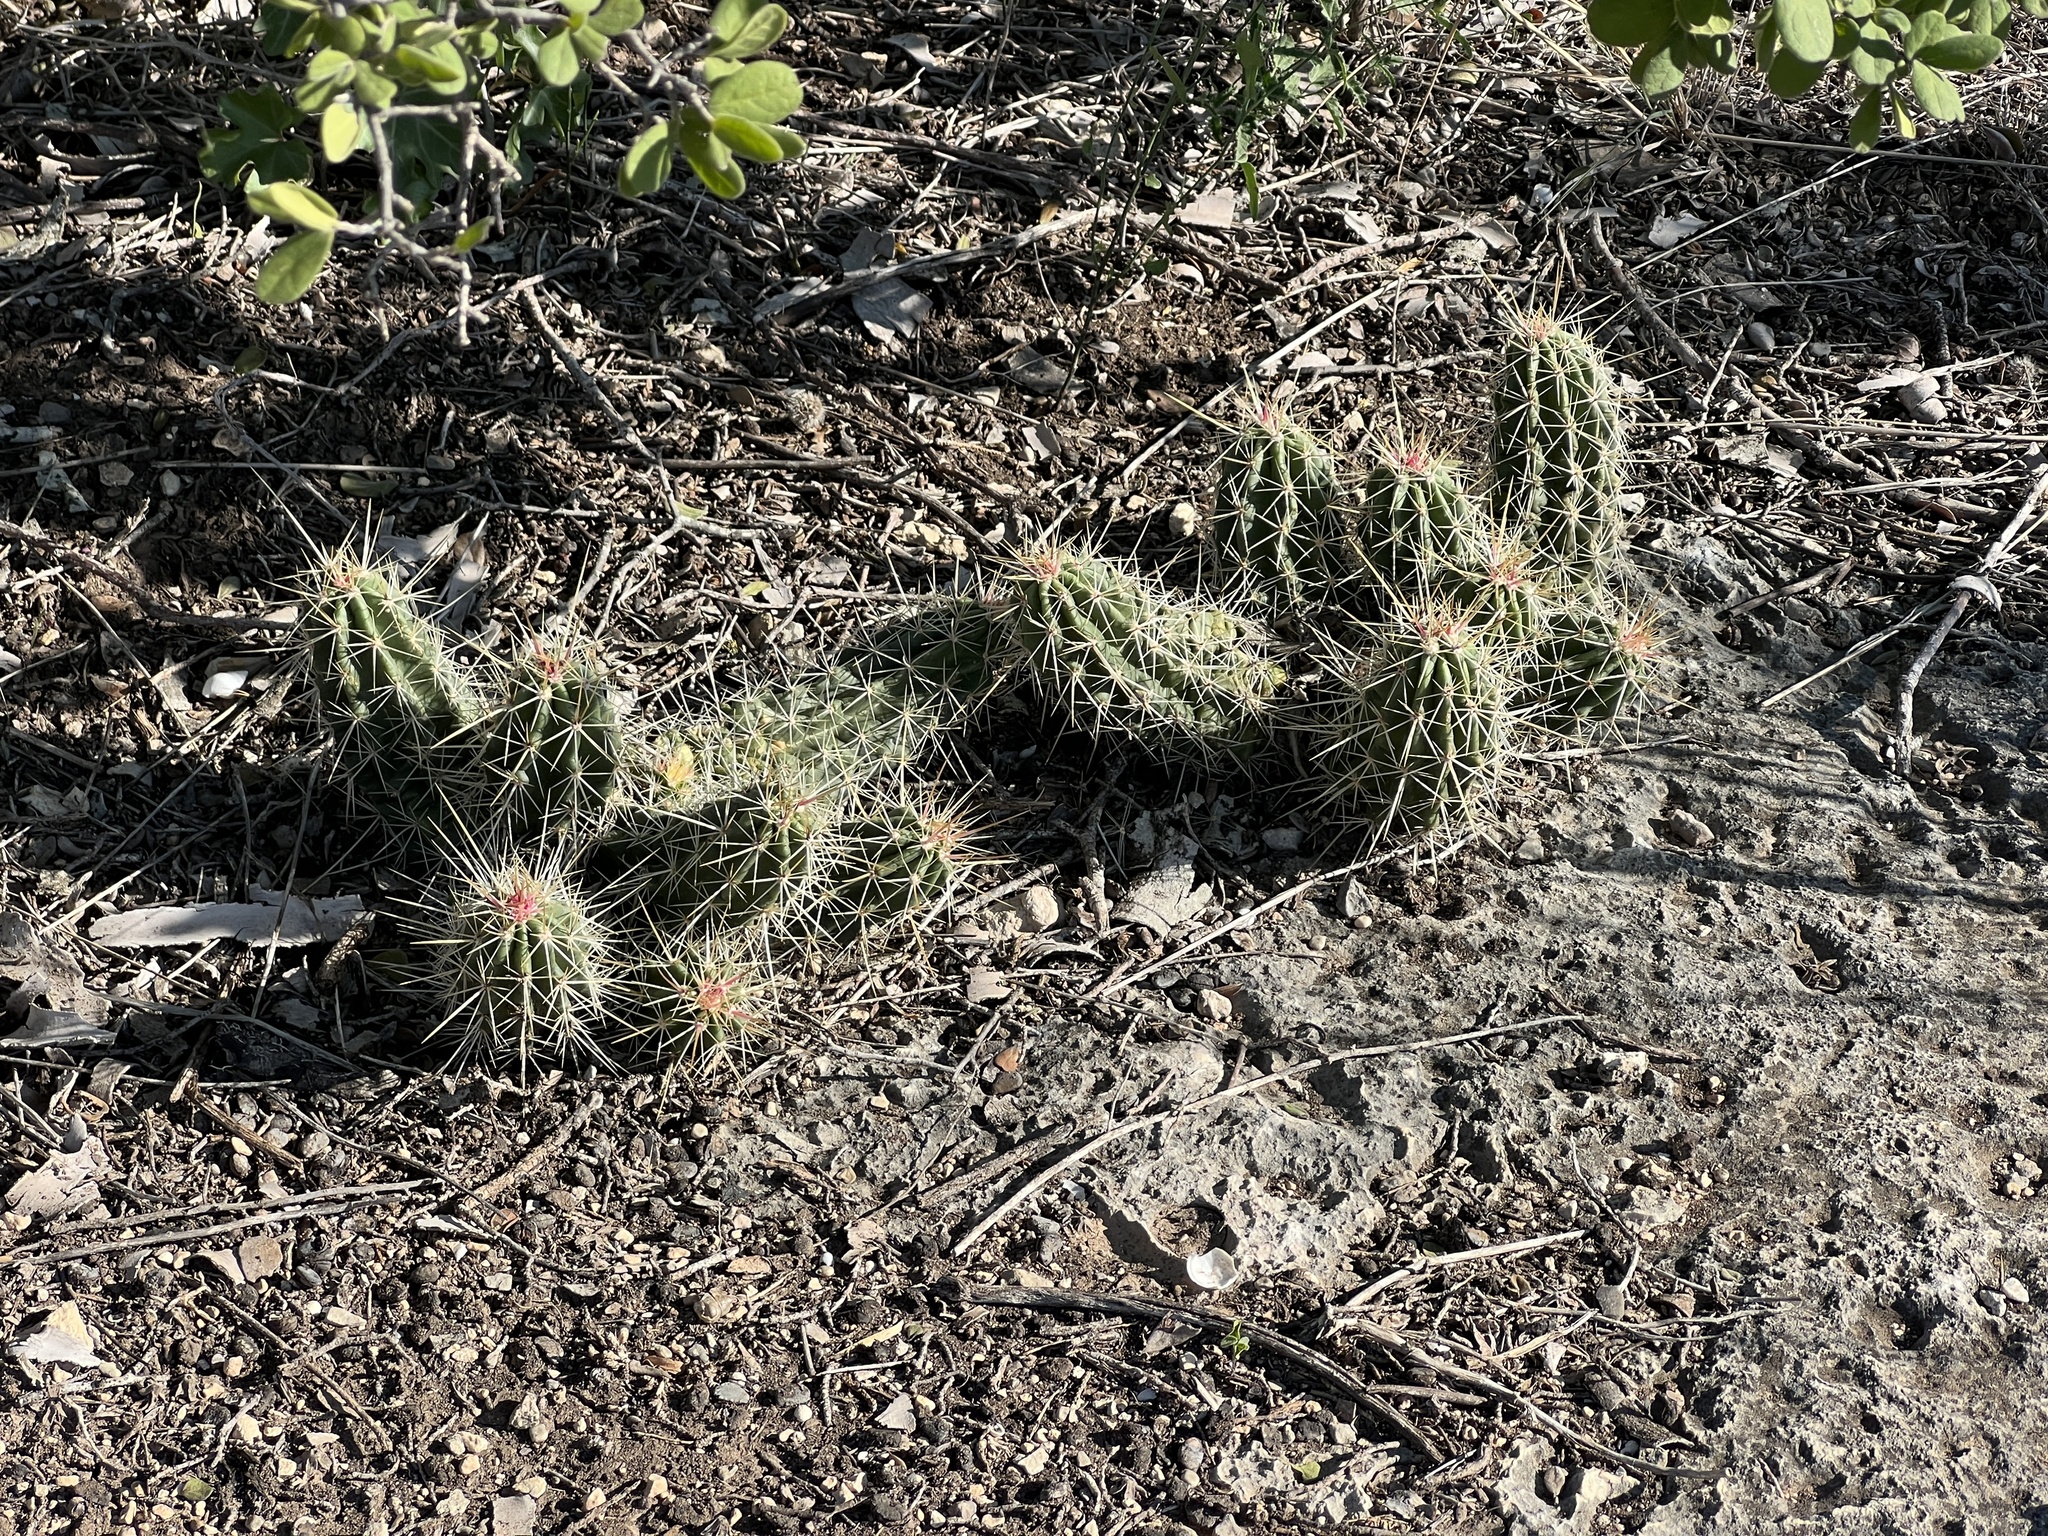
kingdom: Plantae
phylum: Tracheophyta
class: Magnoliopsida
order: Caryophyllales
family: Cactaceae
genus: Echinocereus
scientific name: Echinocereus enneacanthus
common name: Pitaya
